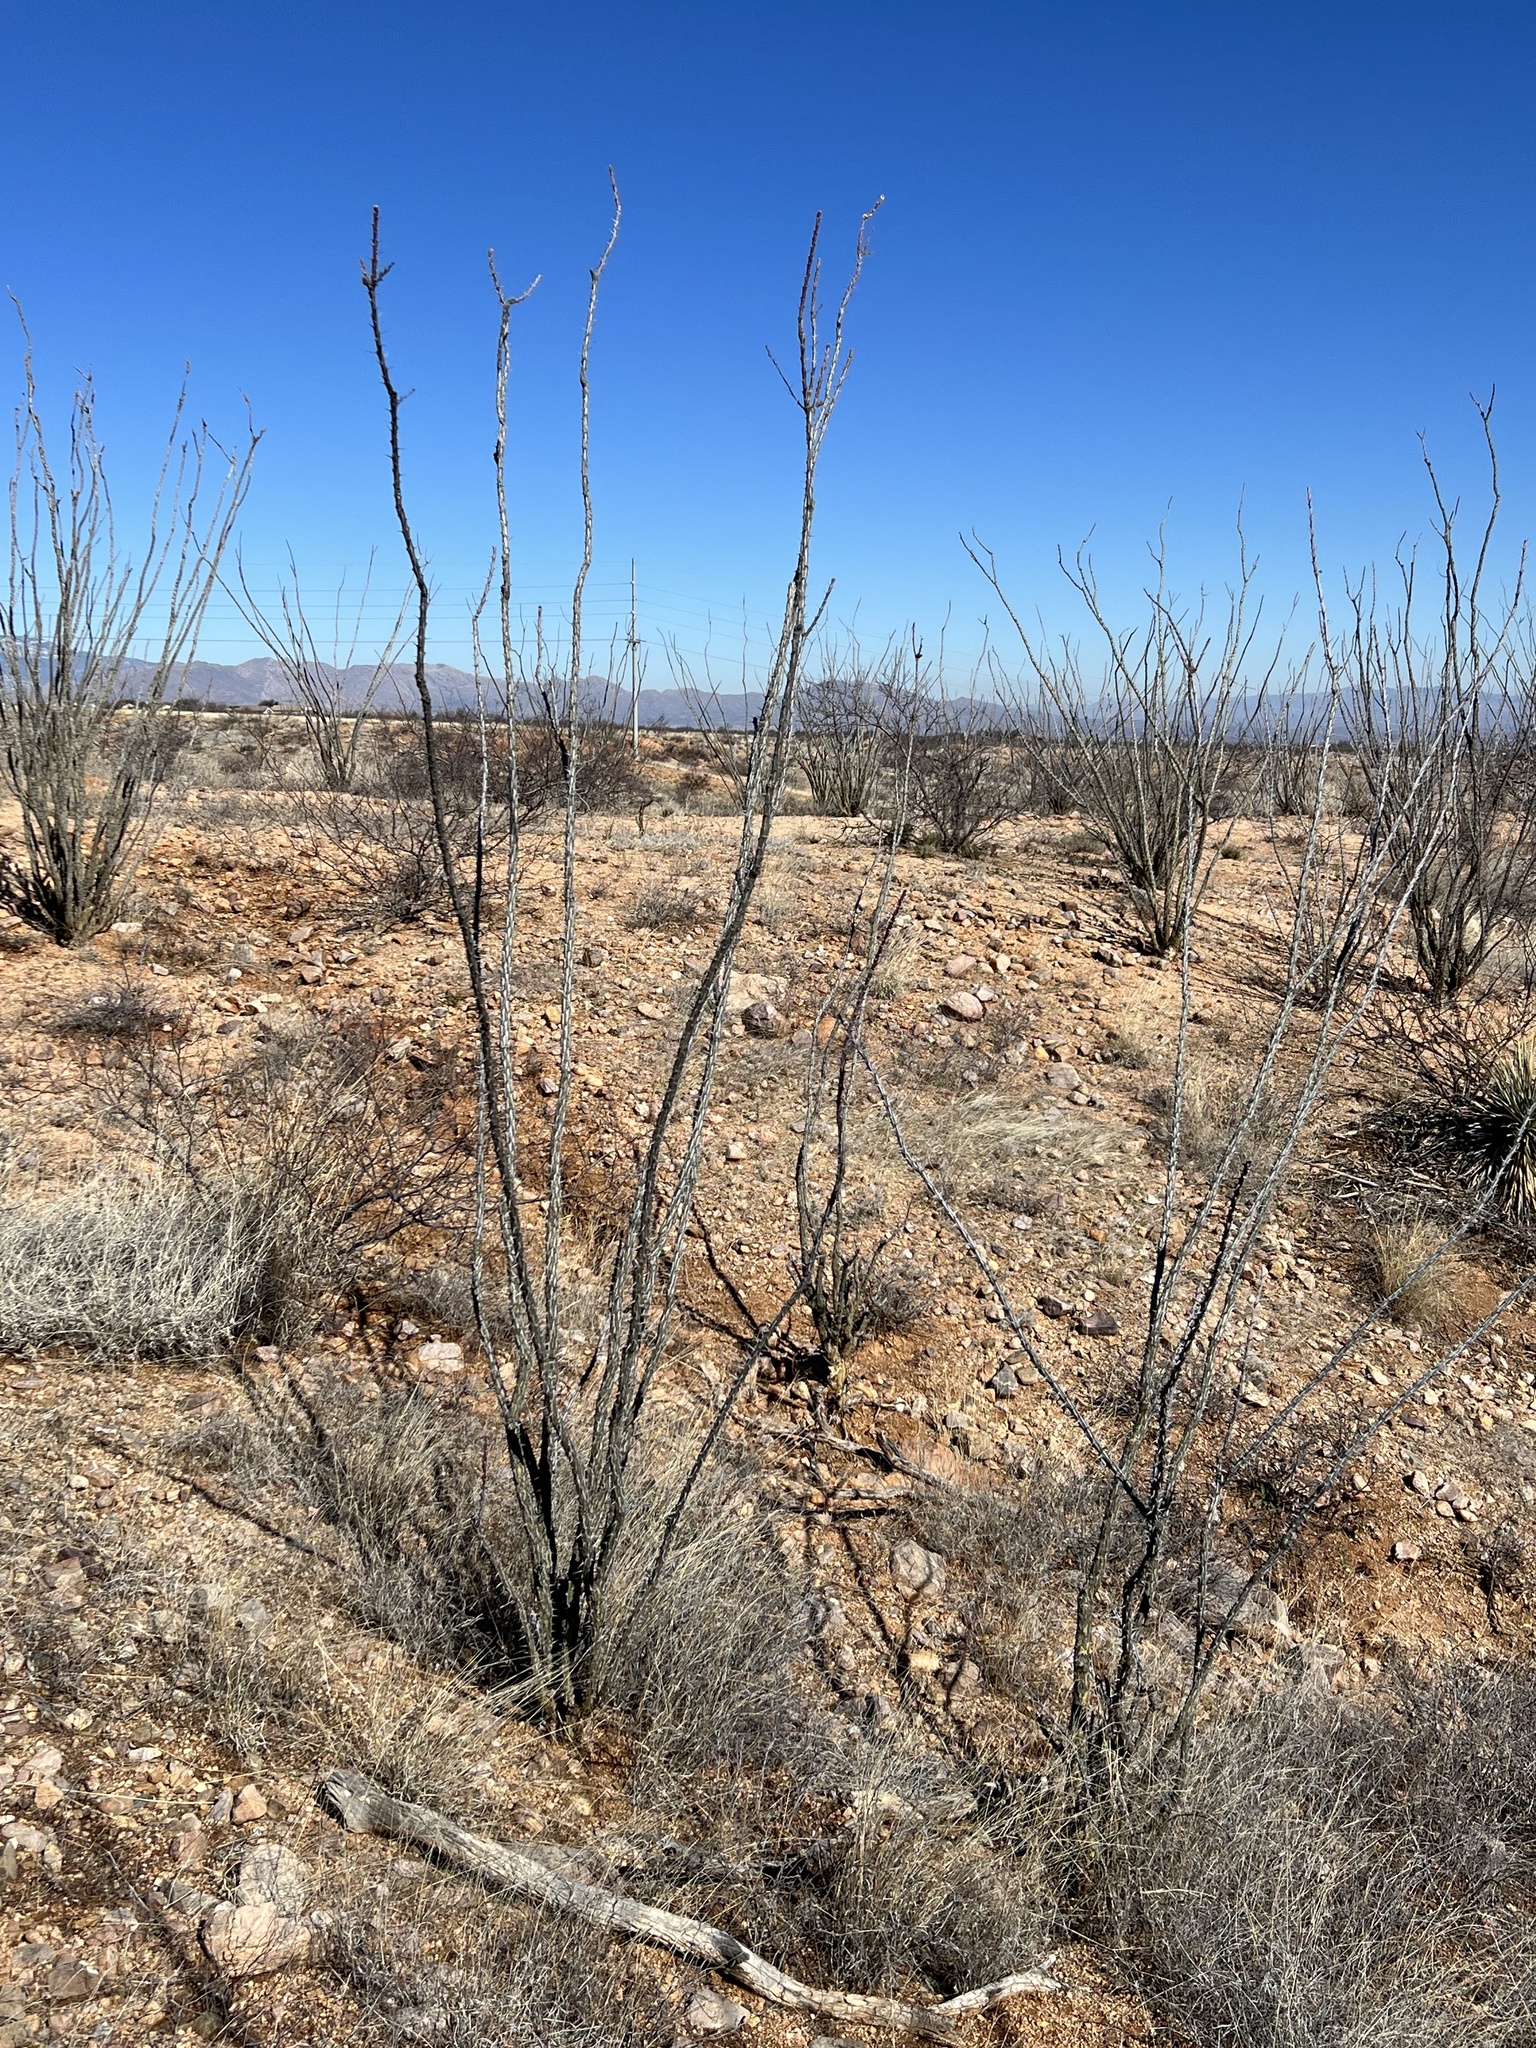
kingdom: Plantae
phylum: Tracheophyta
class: Magnoliopsida
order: Ericales
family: Fouquieriaceae
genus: Fouquieria
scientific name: Fouquieria splendens
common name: Vine-cactus
